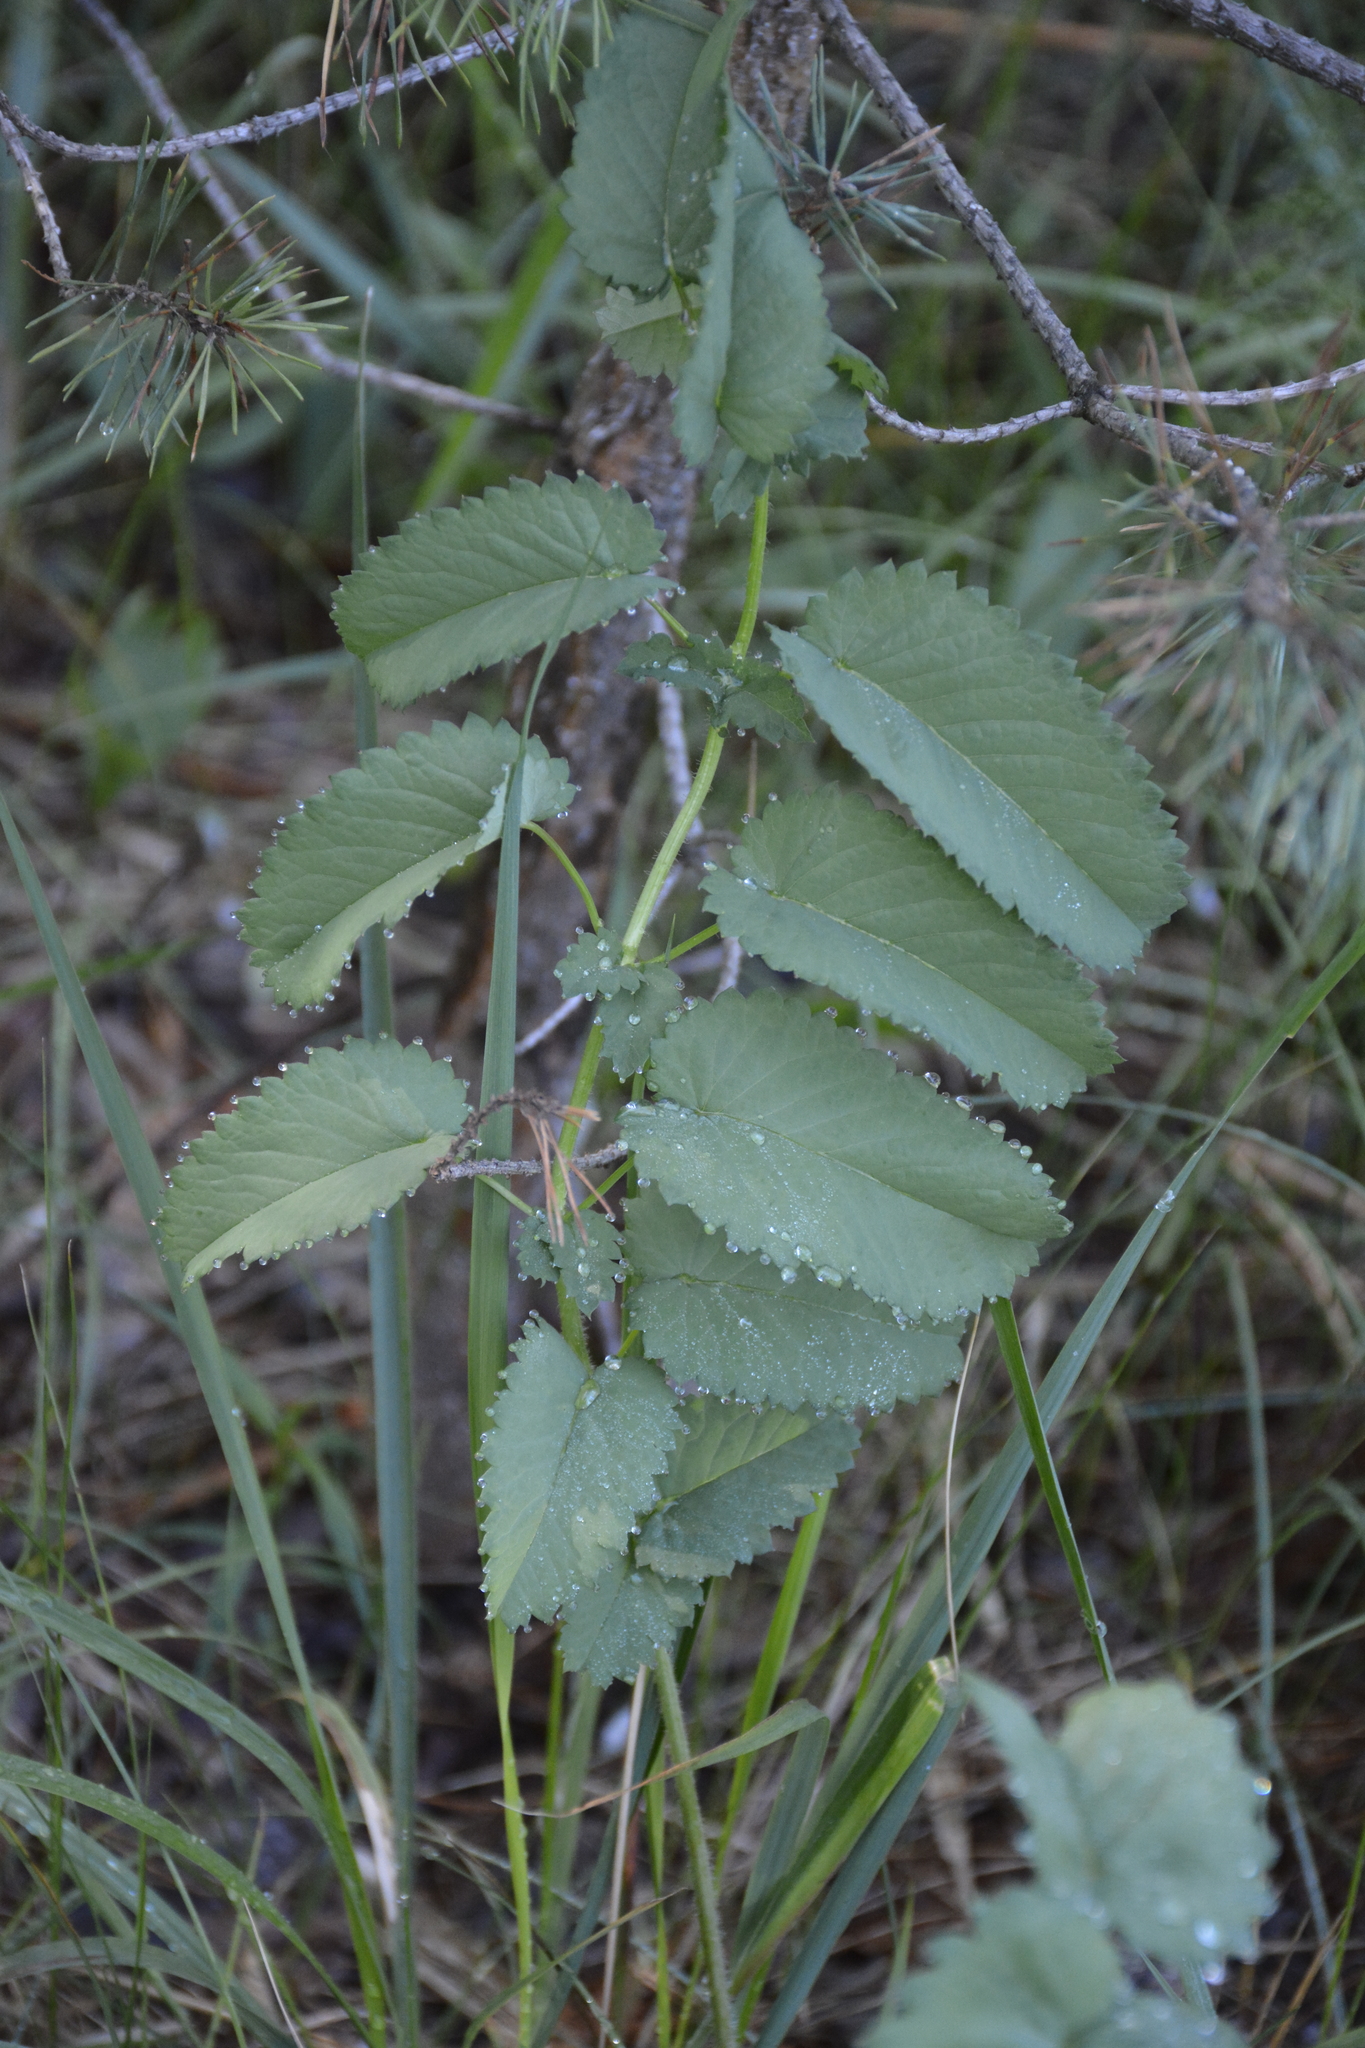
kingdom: Plantae
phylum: Tracheophyta
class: Magnoliopsida
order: Rosales
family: Rosaceae
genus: Sanguisorba
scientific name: Sanguisorba officinalis
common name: Great burnet
